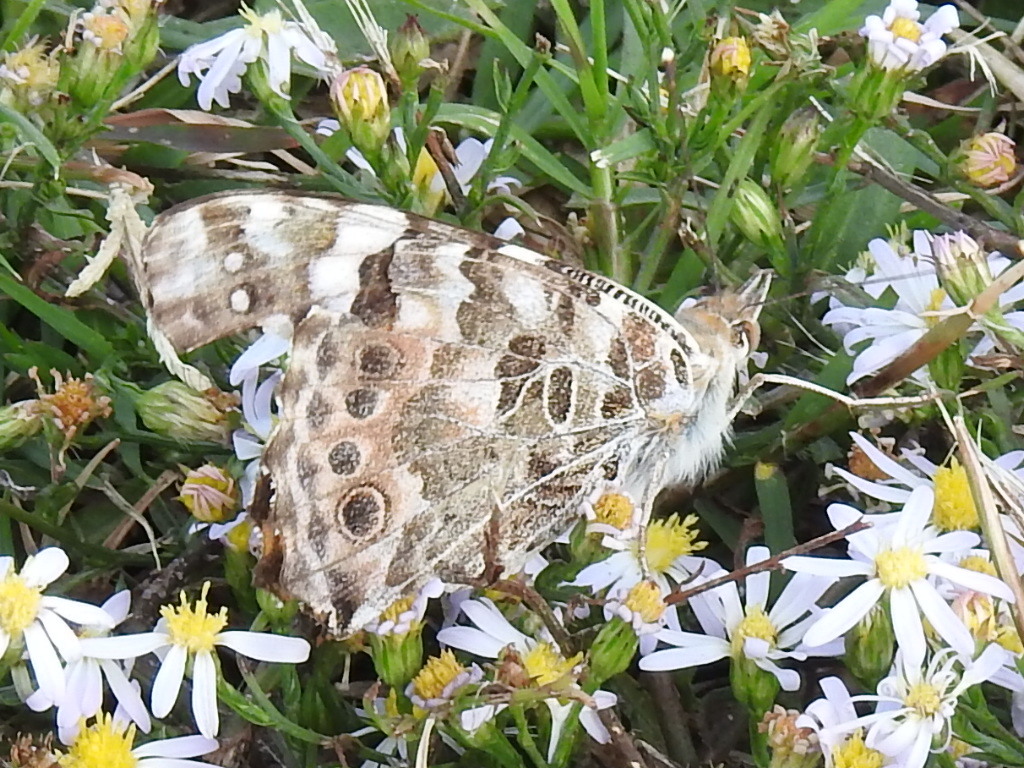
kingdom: Animalia
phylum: Arthropoda
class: Insecta
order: Lepidoptera
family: Nymphalidae
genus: Vanessa
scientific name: Vanessa cardui
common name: Painted lady
